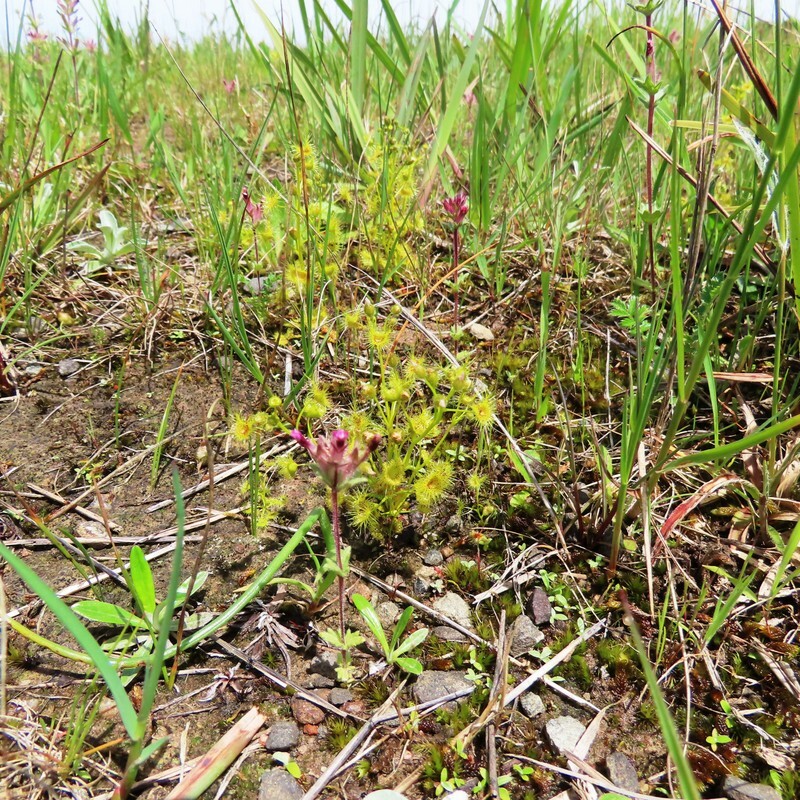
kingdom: Plantae
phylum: Tracheophyta
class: Magnoliopsida
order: Caryophyllales
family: Droseraceae
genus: Drosera
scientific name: Drosera hookeri
